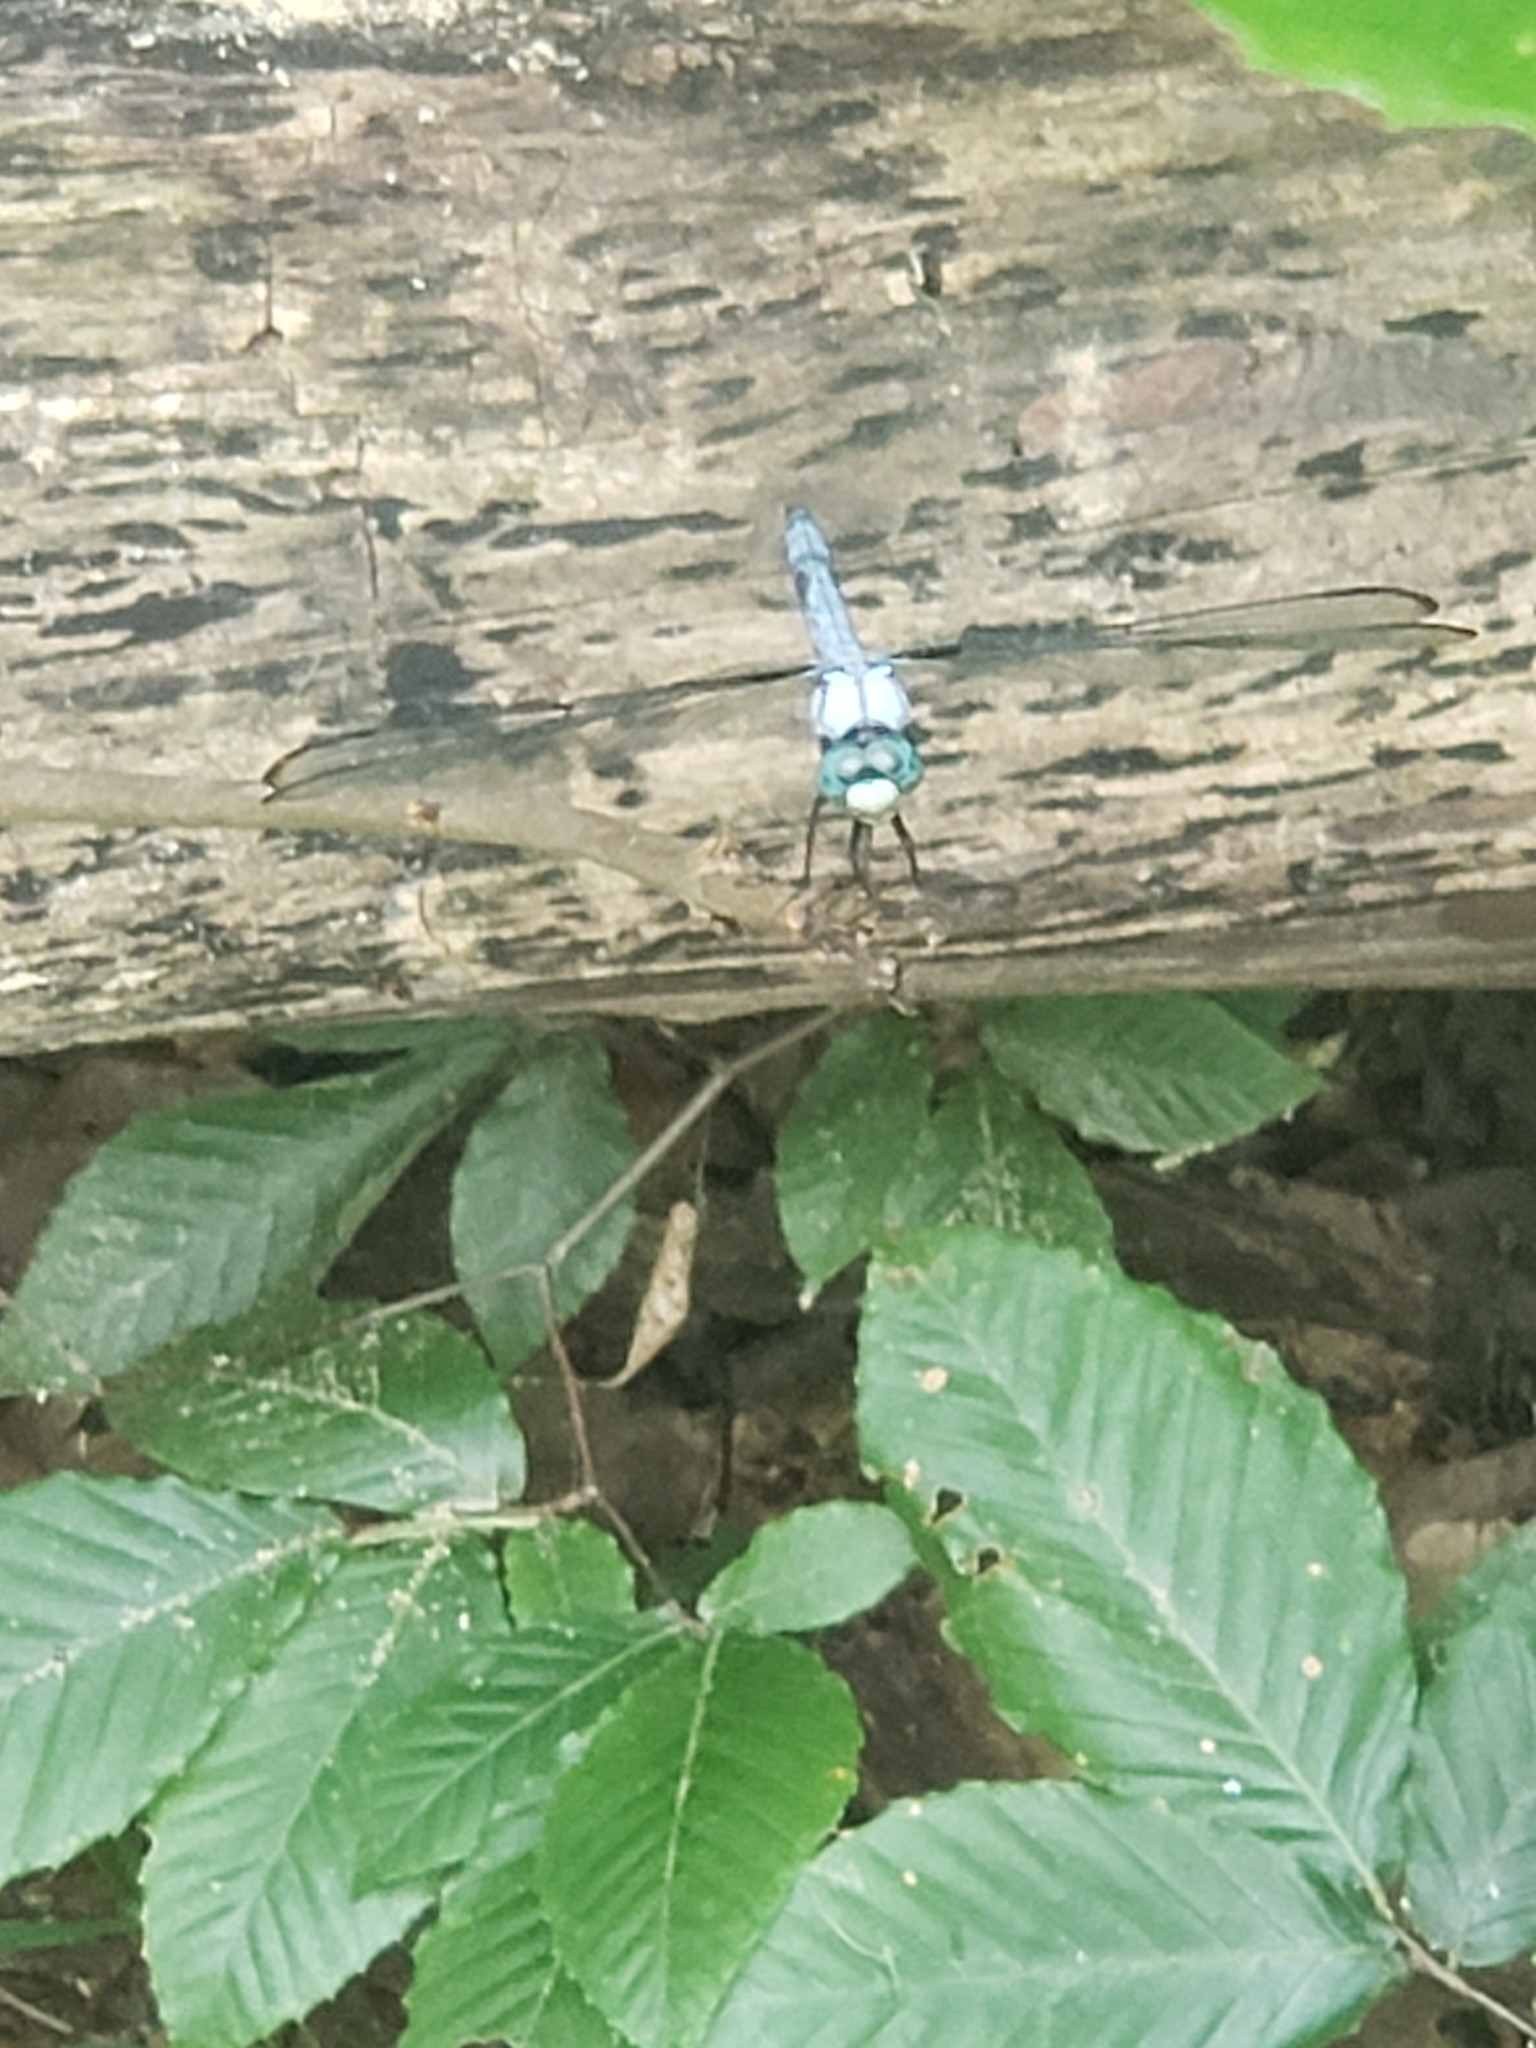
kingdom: Animalia
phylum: Arthropoda
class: Insecta
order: Odonata
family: Libellulidae
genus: Libellula
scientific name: Libellula vibrans
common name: Great blue skimmer
